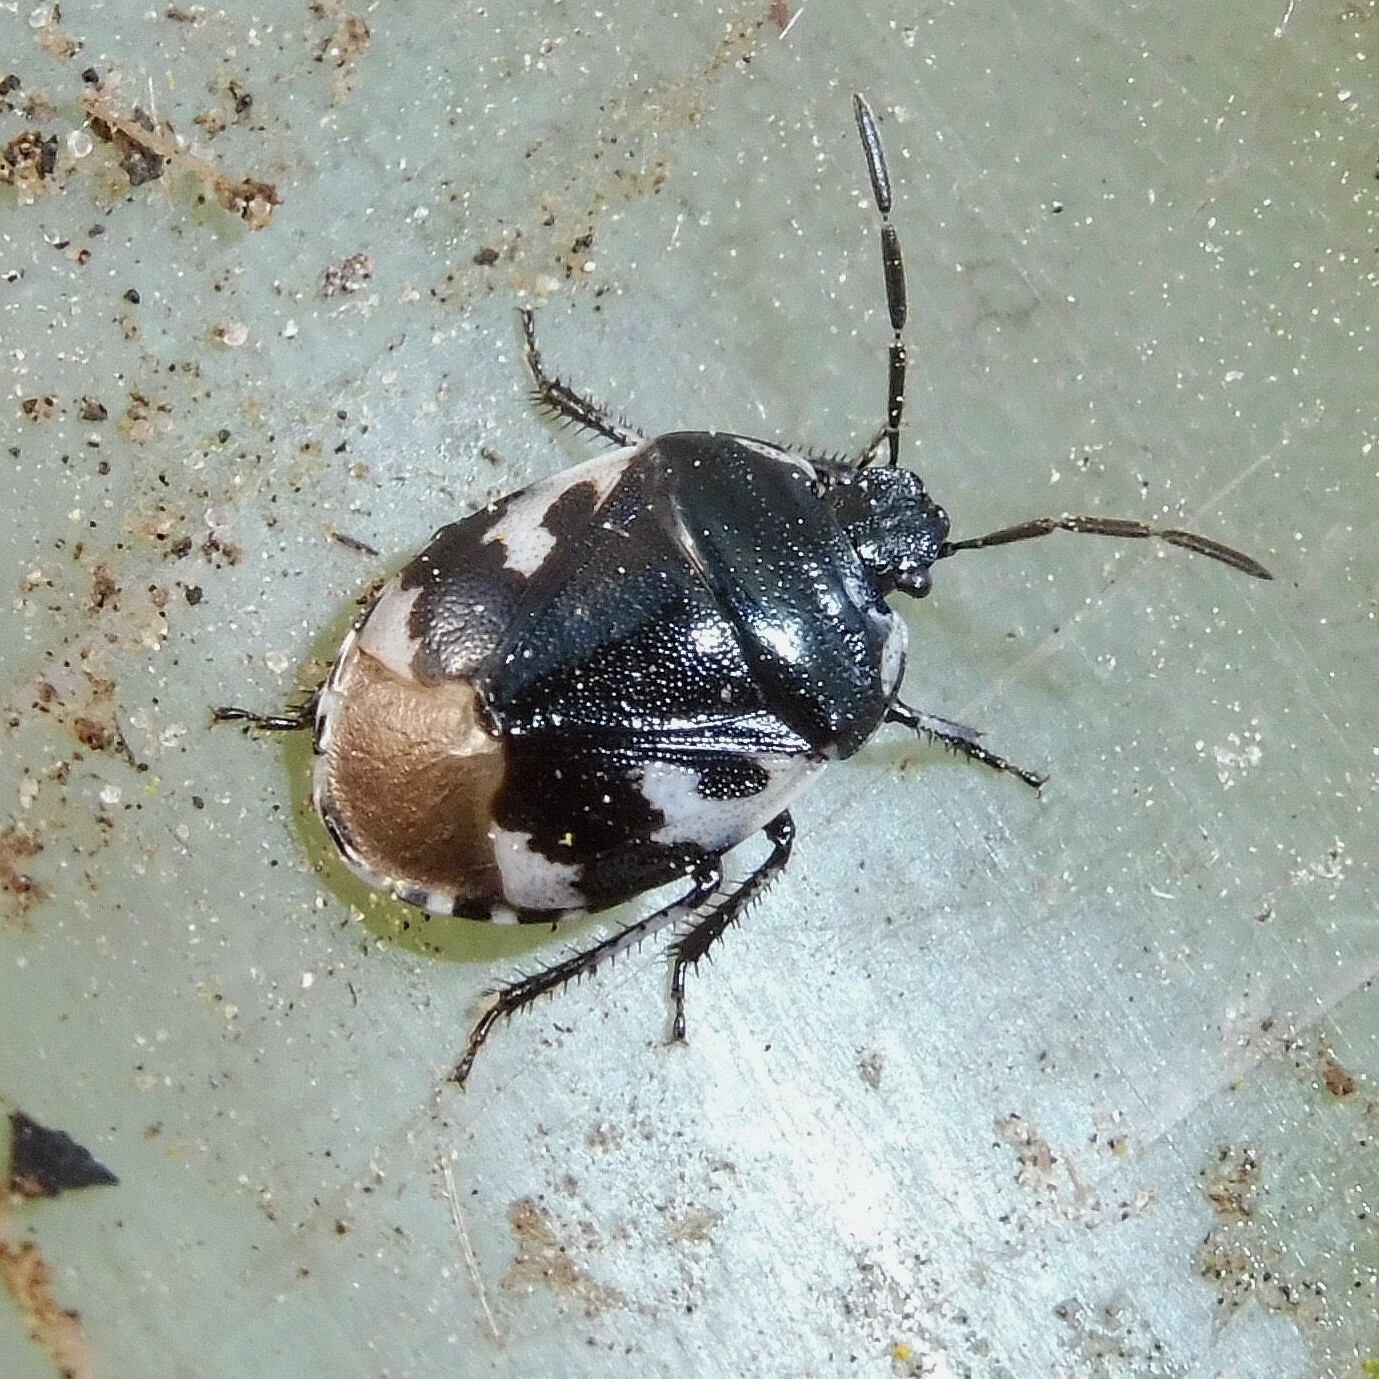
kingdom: Animalia
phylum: Arthropoda
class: Insecta
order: Hemiptera
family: Cydnidae
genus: Tritomegas
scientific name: Tritomegas bicolor
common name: Pied shieldbug
